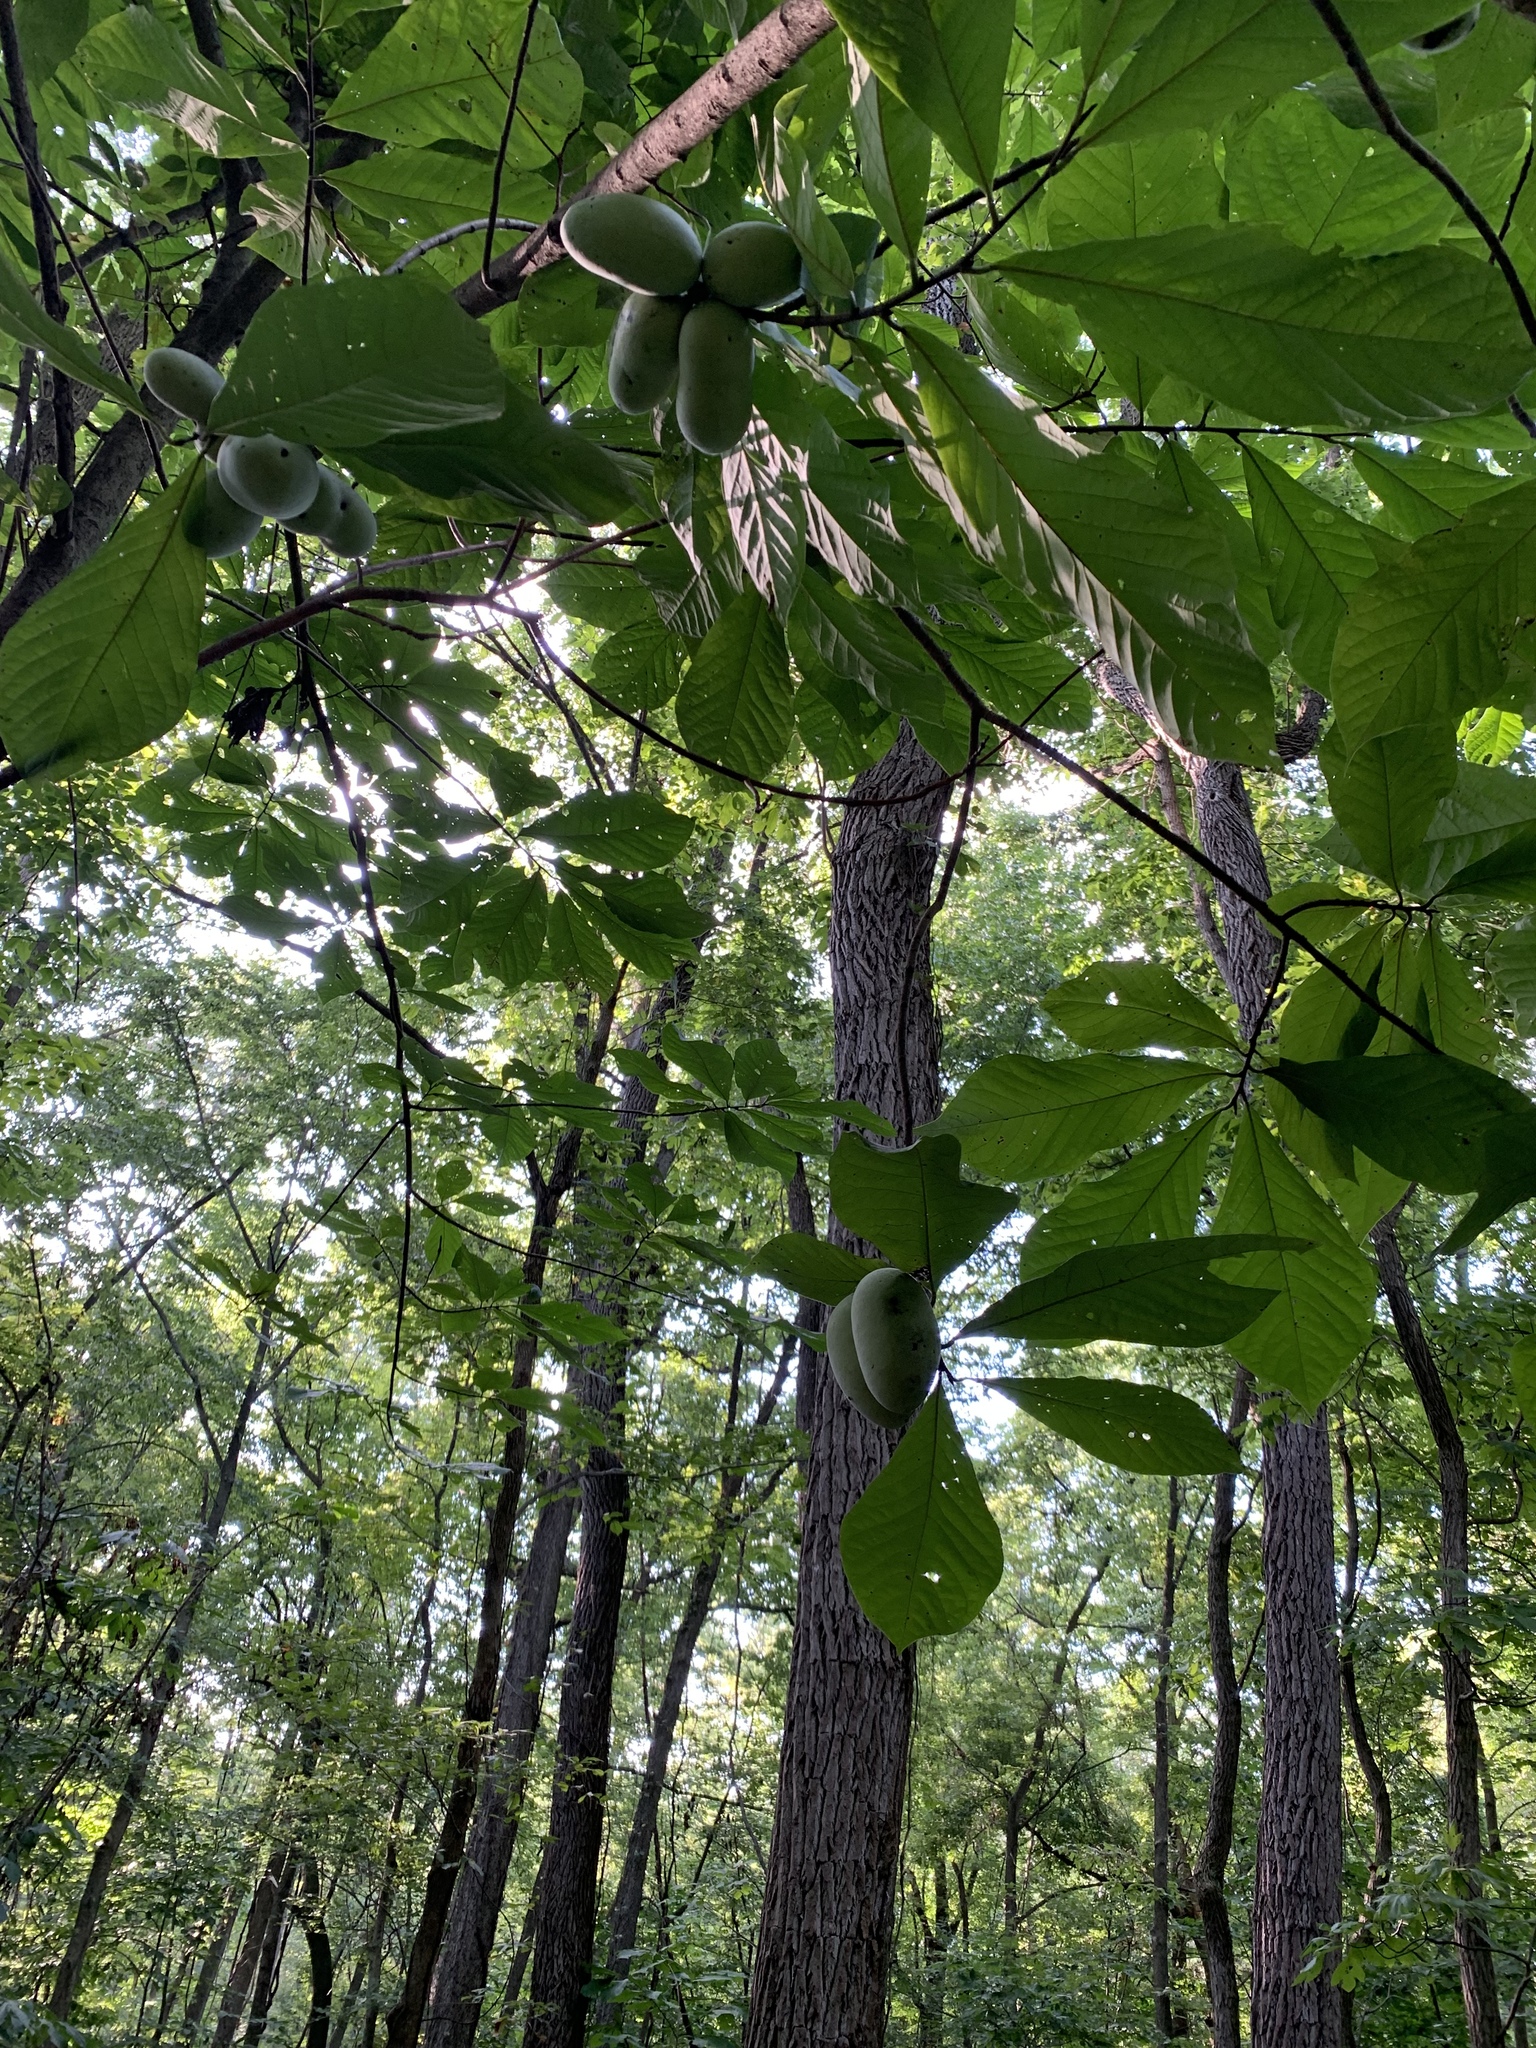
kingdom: Plantae
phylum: Tracheophyta
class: Magnoliopsida
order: Magnoliales
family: Annonaceae
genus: Asimina
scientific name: Asimina triloba
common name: Dog-banana
